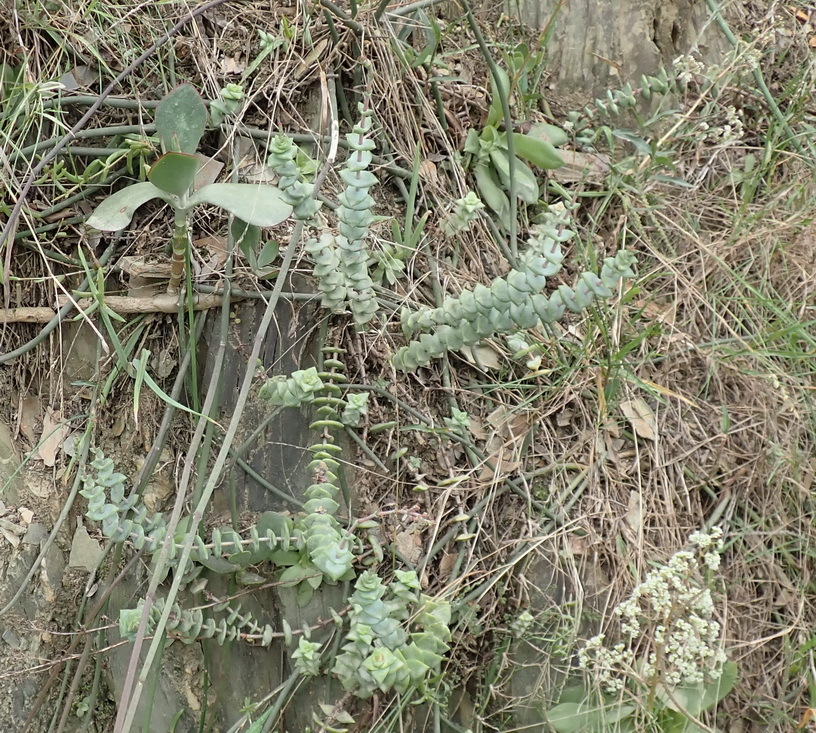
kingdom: Plantae
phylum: Tracheophyta
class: Magnoliopsida
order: Saxifragales
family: Crassulaceae
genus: Crassula
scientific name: Crassula perforata
